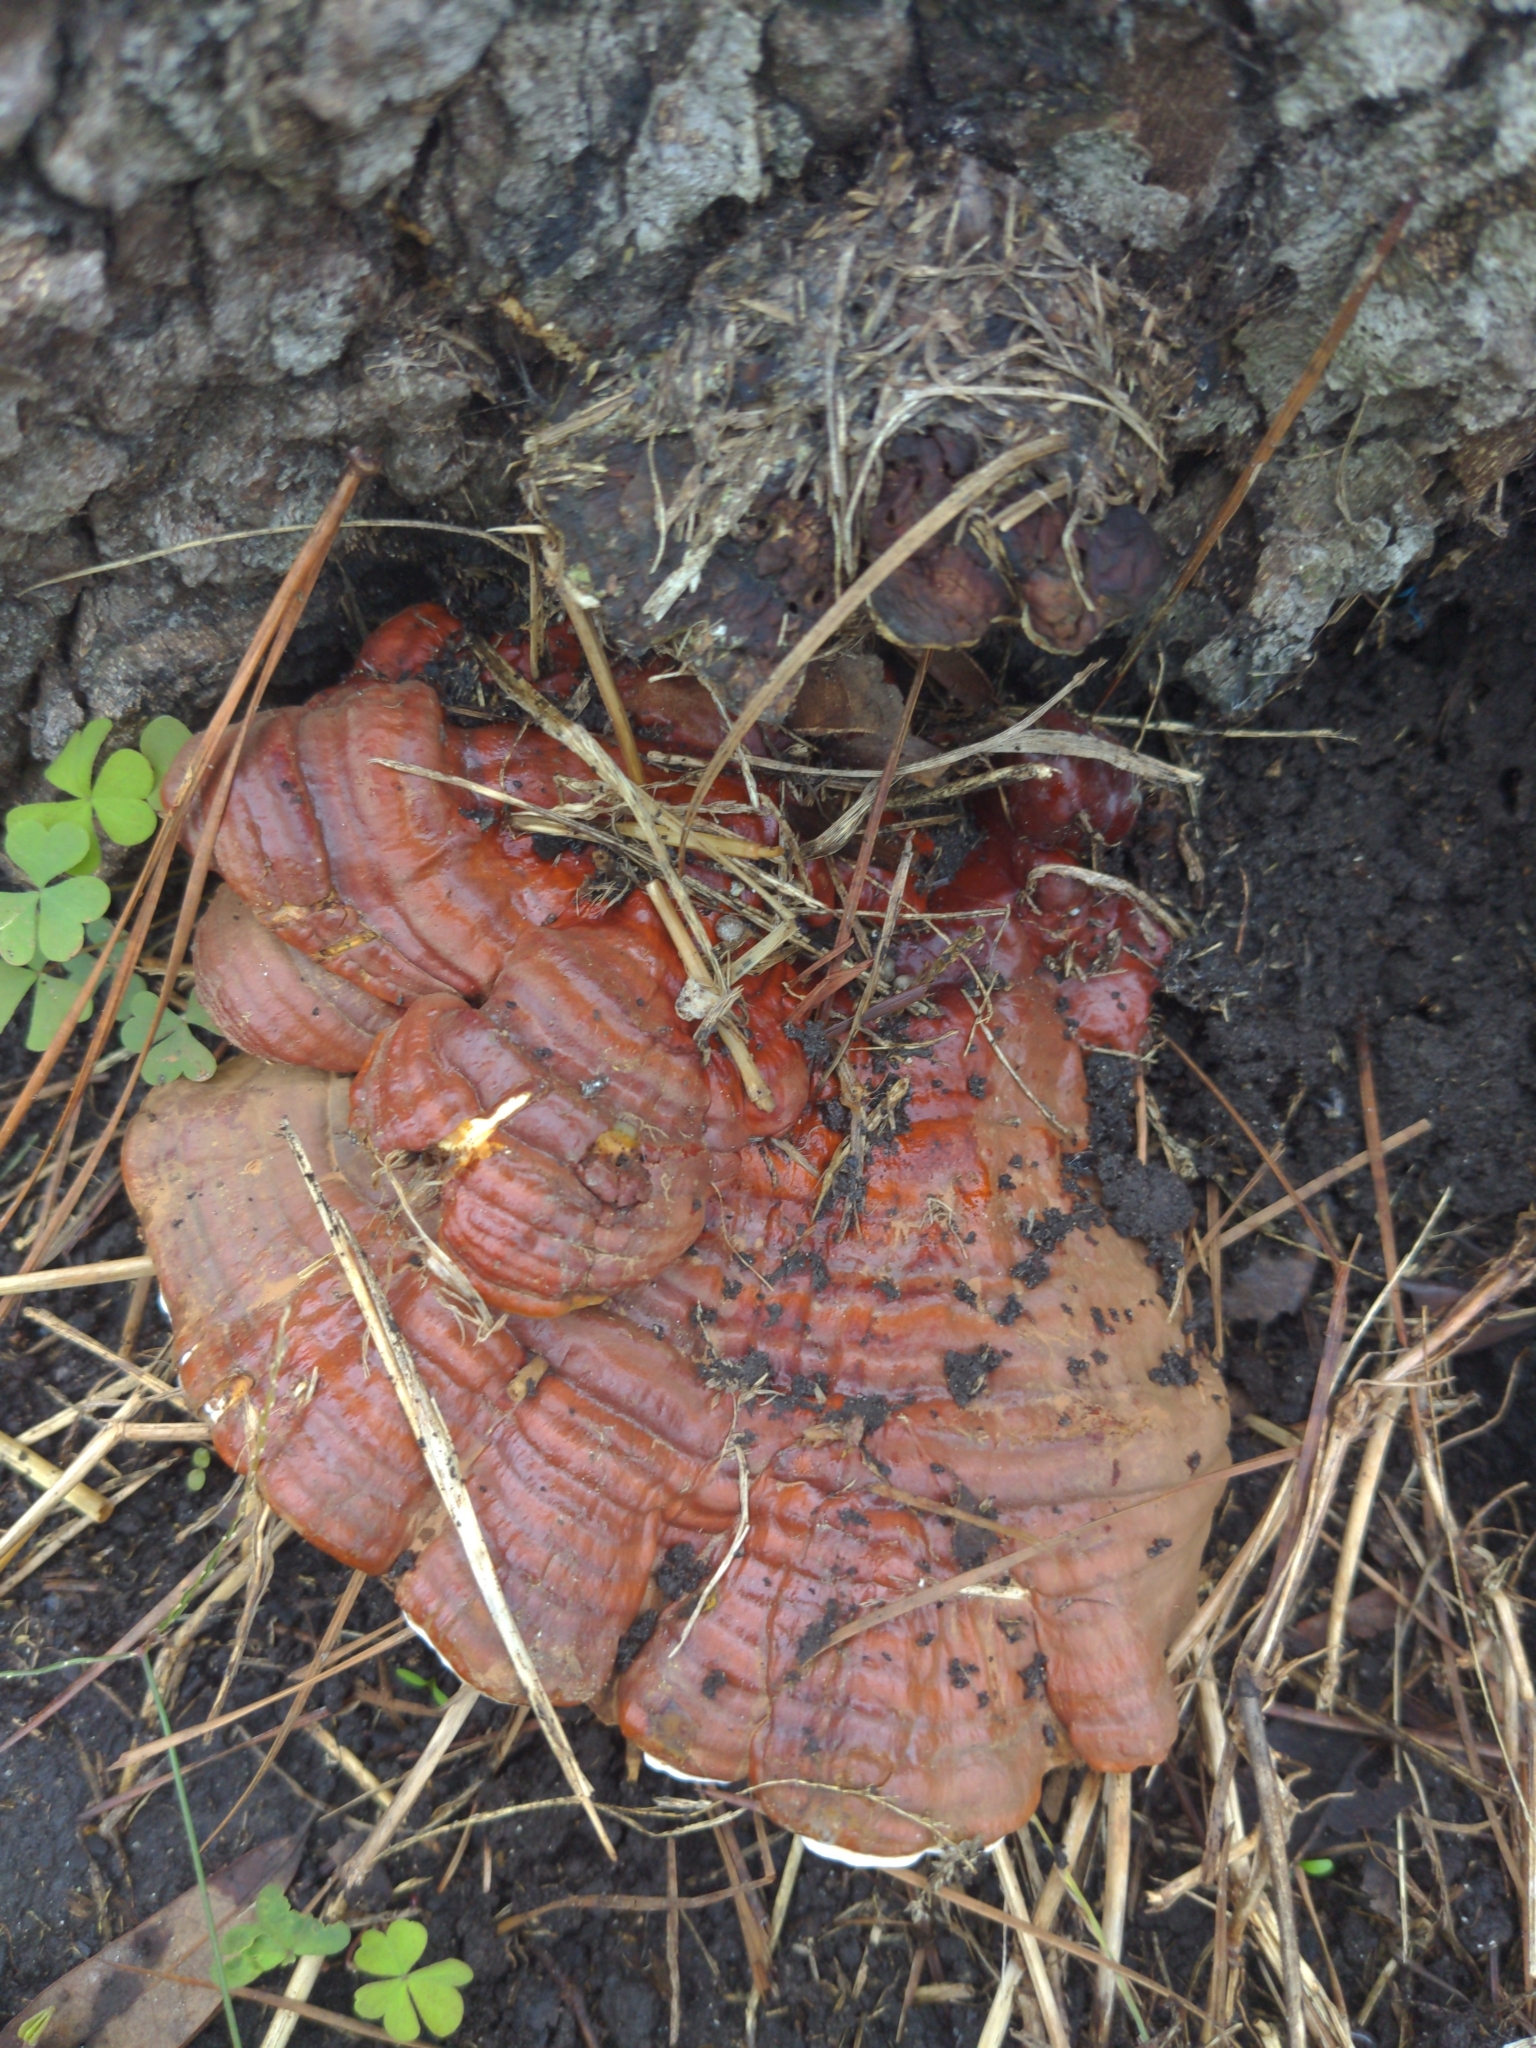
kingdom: Fungi
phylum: Basidiomycota
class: Agaricomycetes
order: Polyporales
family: Polyporaceae
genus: Ganoderma
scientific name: Ganoderma resinaceum
